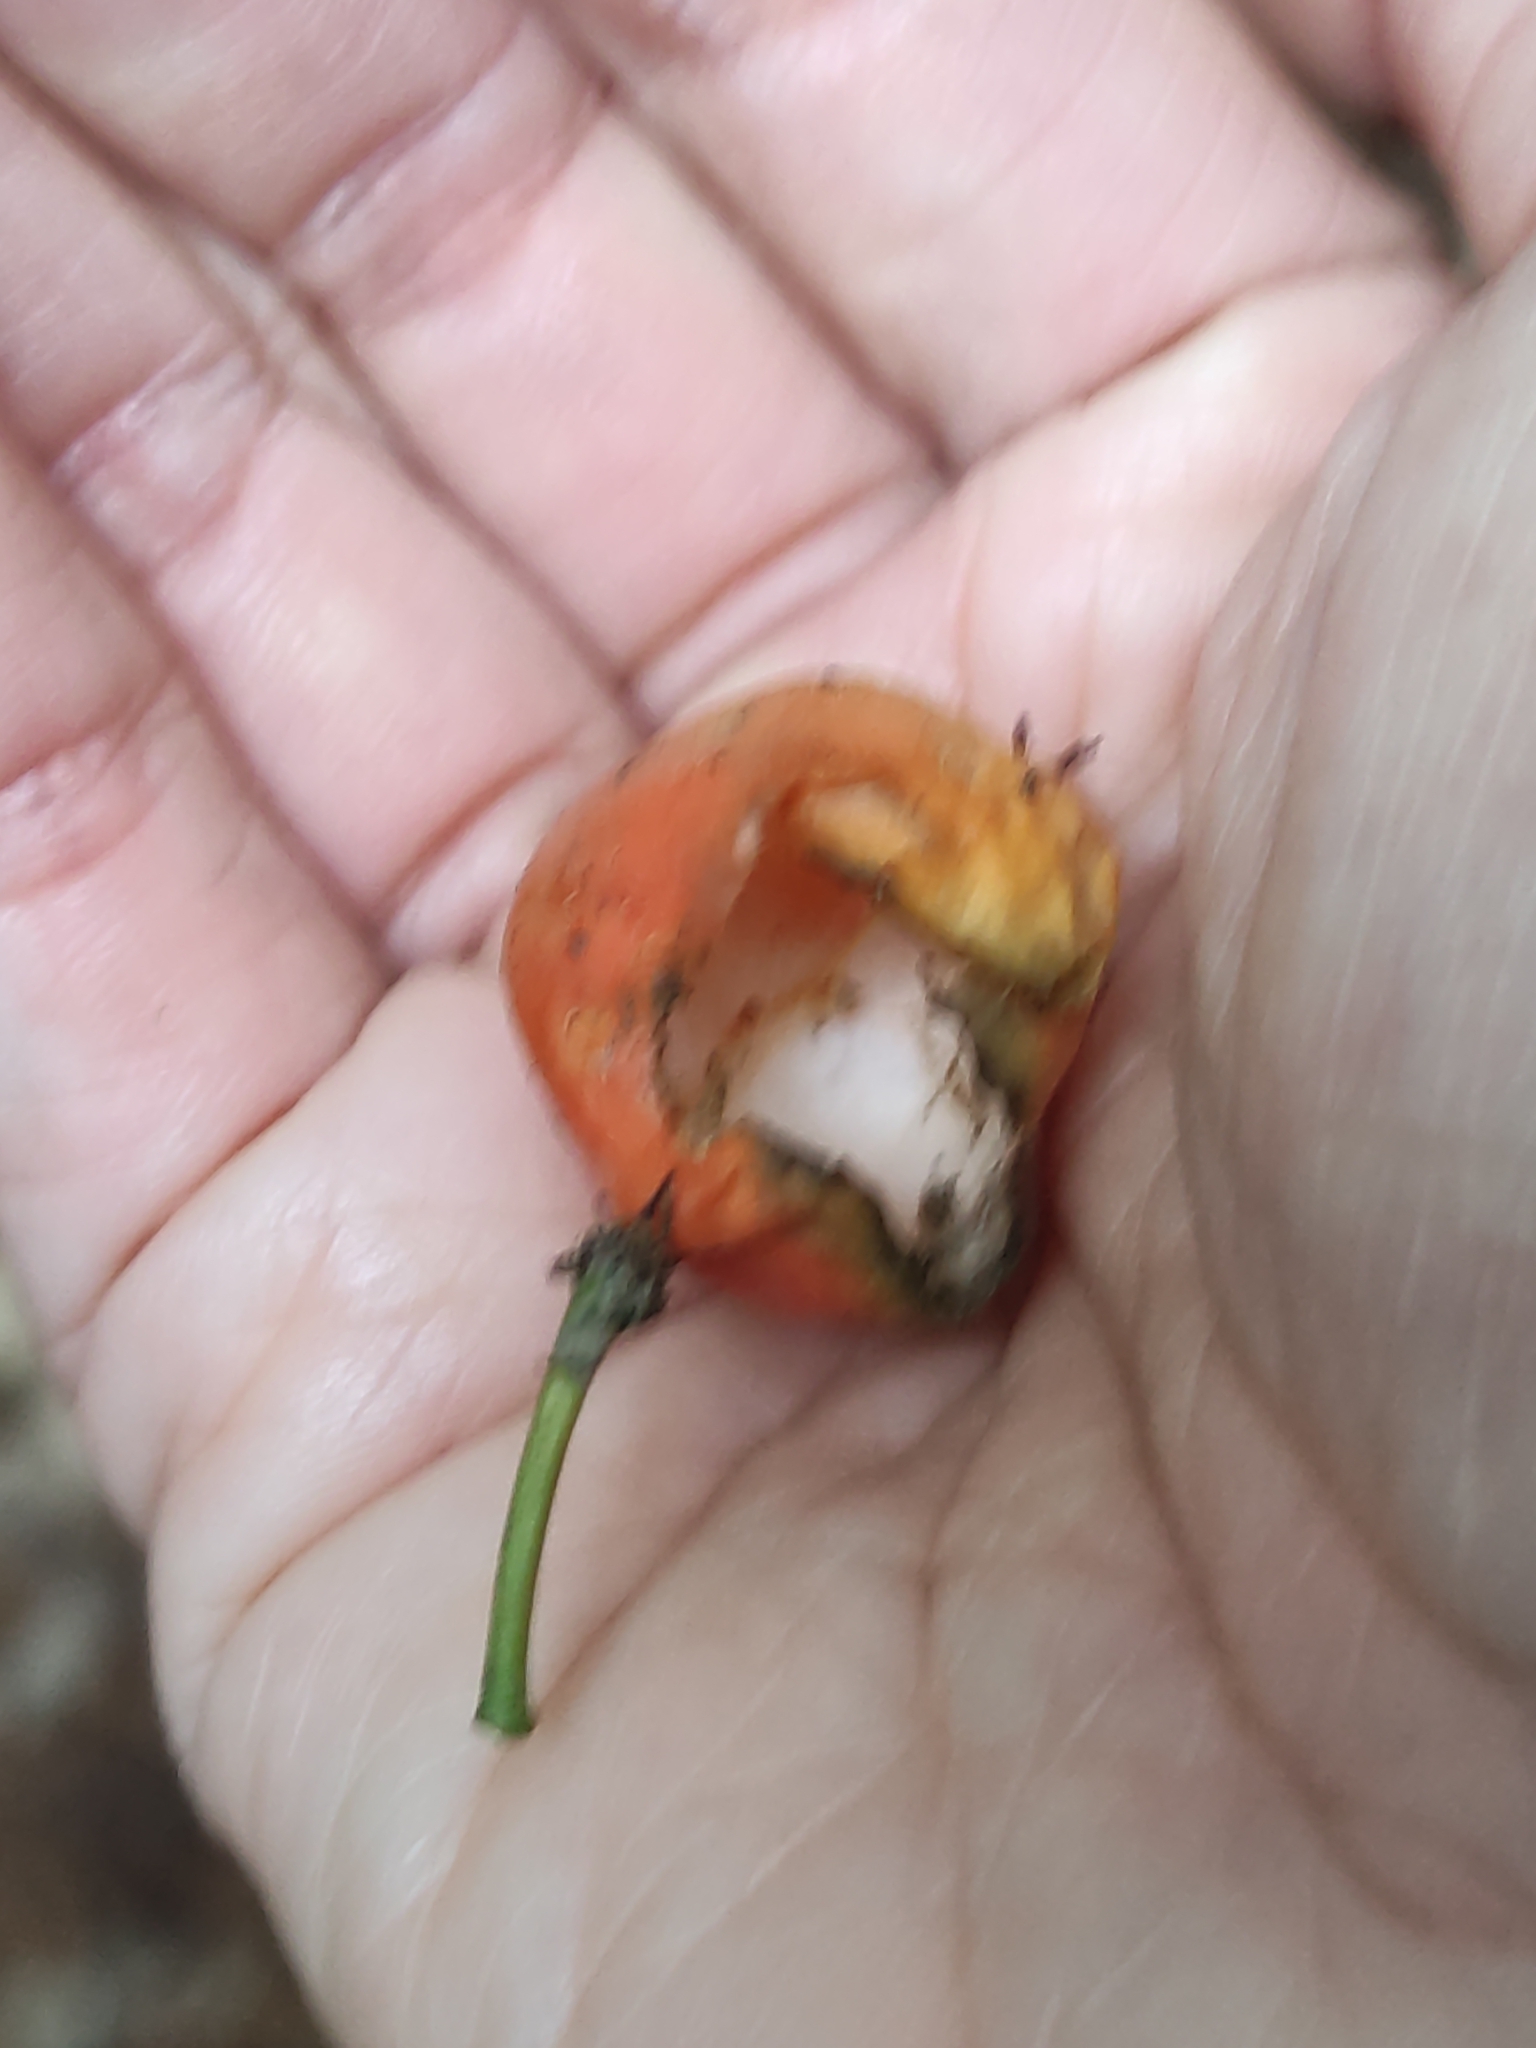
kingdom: Plantae
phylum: Tracheophyta
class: Magnoliopsida
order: Malpighiales
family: Passifloraceae
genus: Passiflora
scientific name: Passiflora tetrandra
